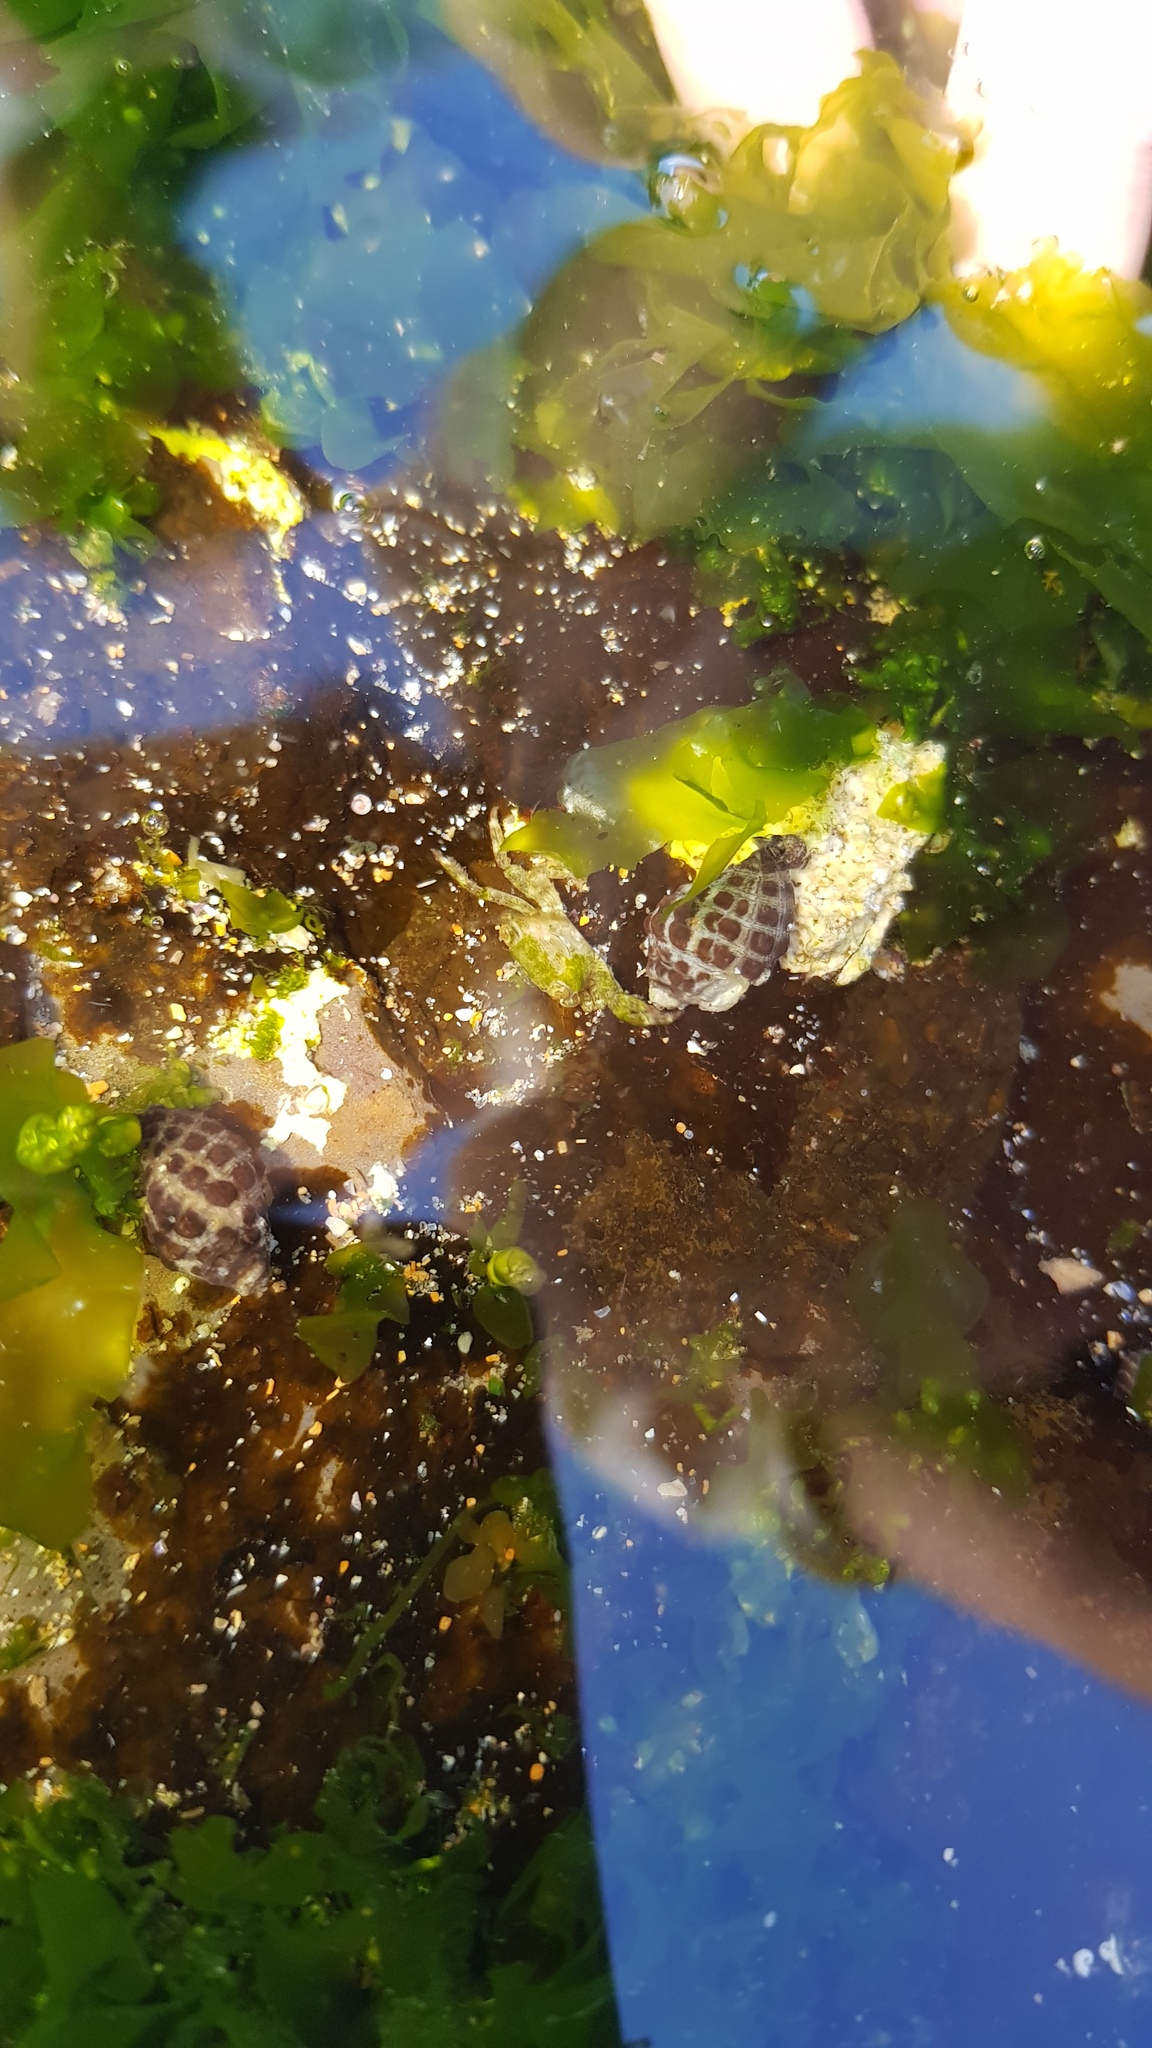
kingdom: Animalia
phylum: Mollusca
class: Gastropoda
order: Neogastropoda
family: Muricidae
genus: Tenguella
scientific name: Tenguella marginalba
